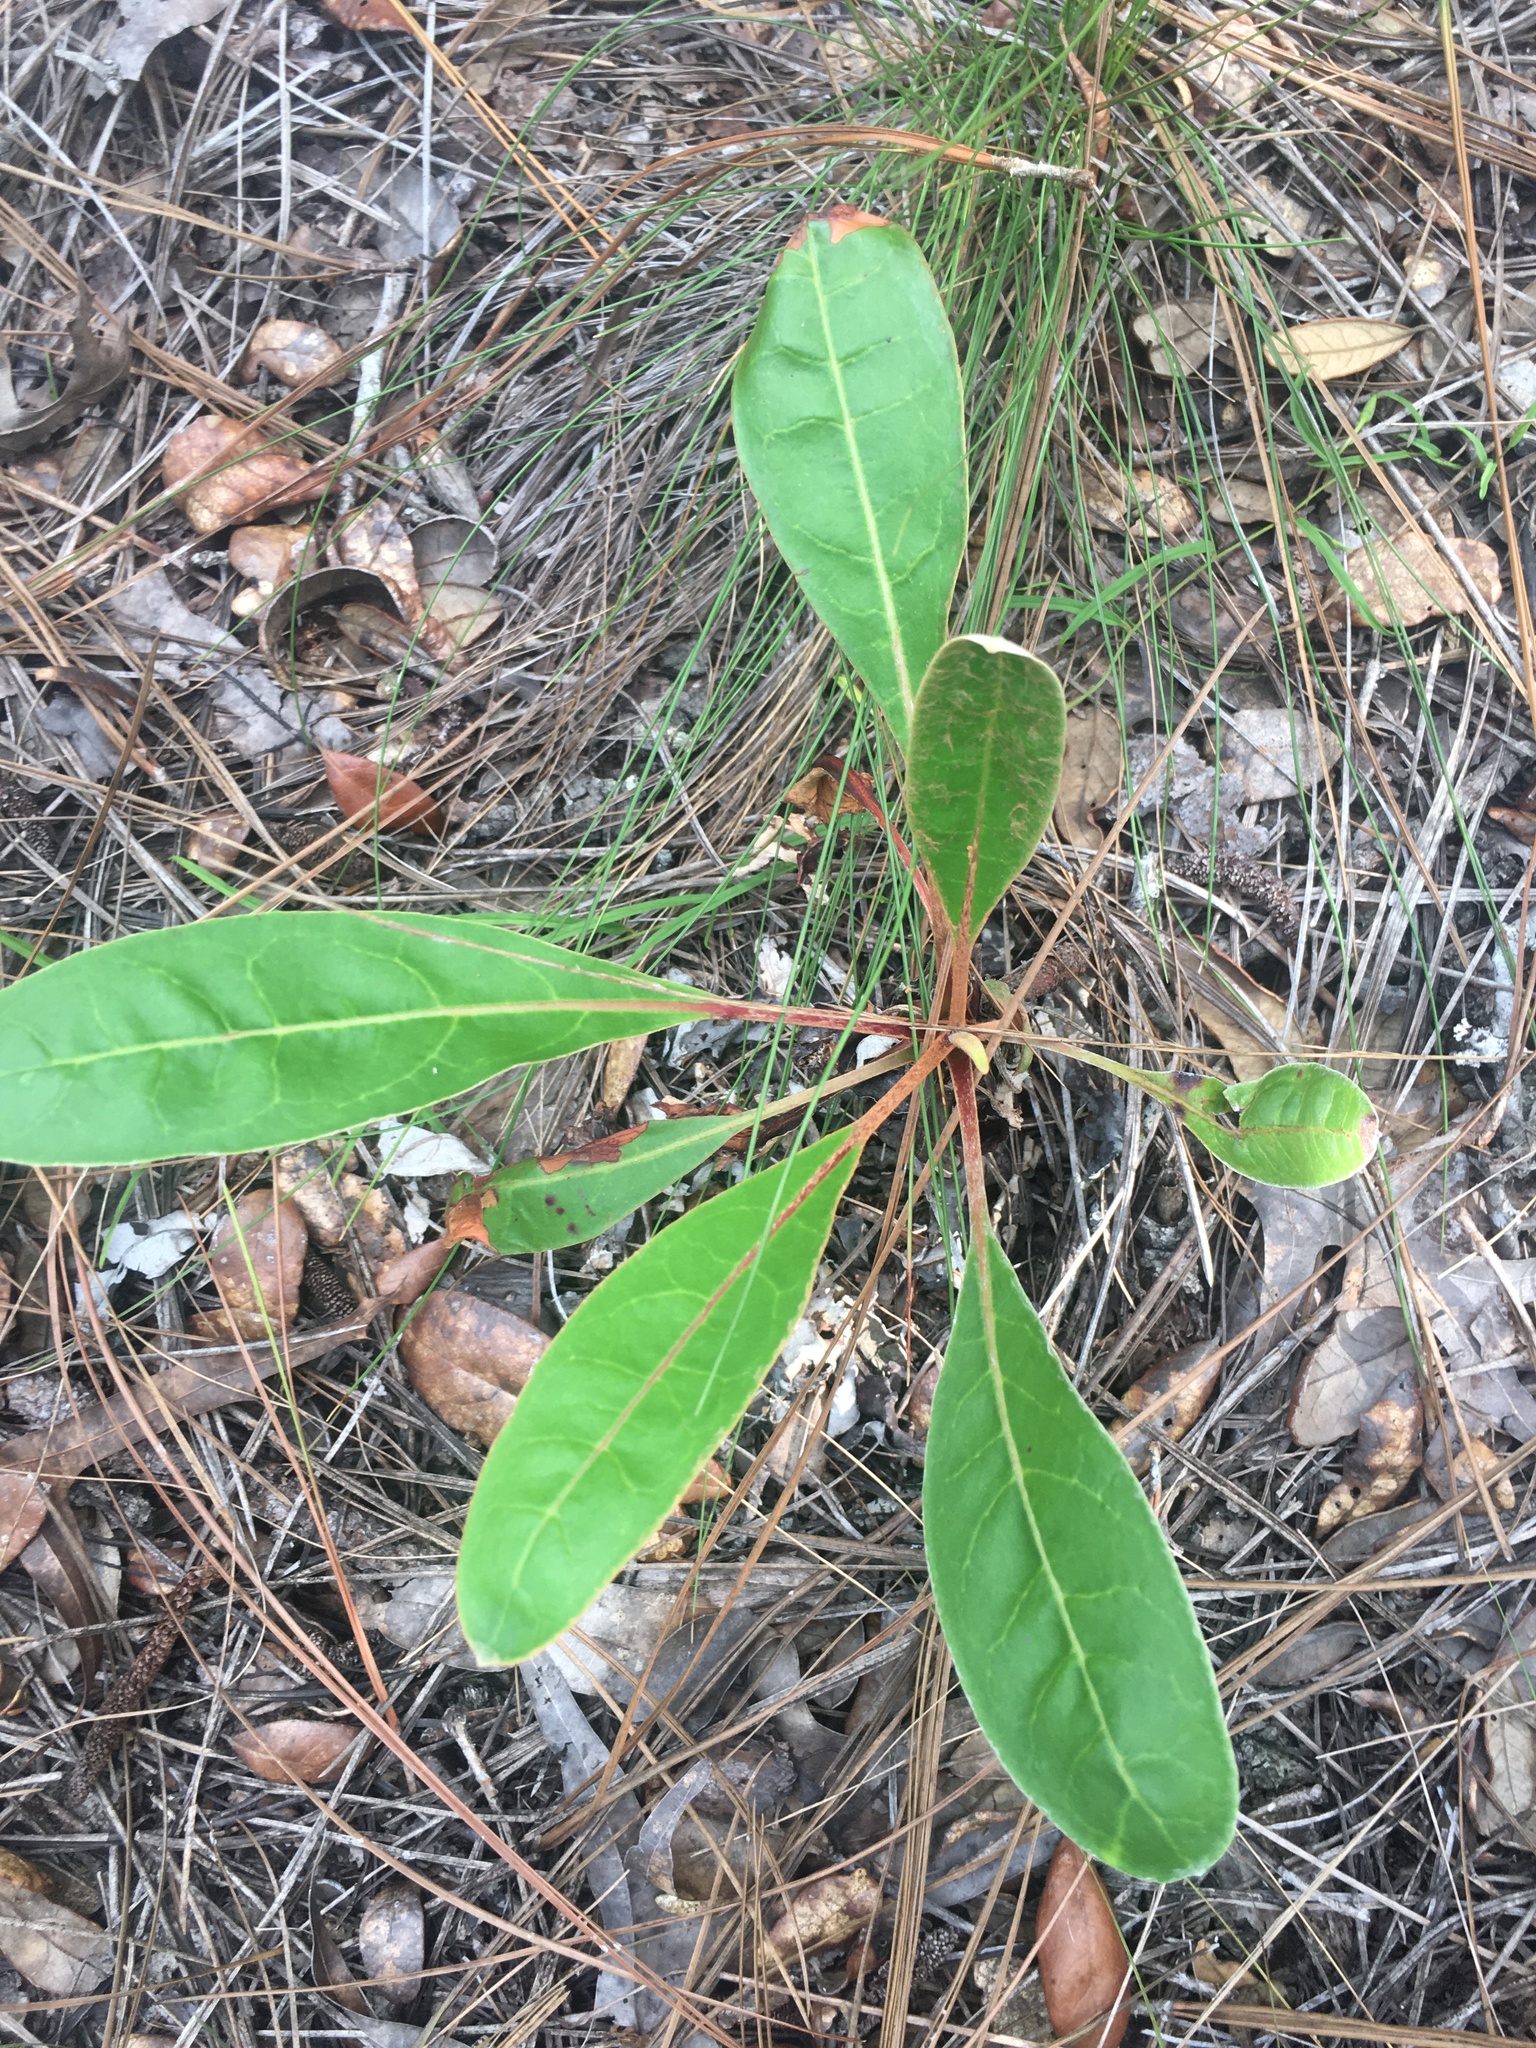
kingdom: Plantae
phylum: Tracheophyta
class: Magnoliopsida
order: Caryophyllales
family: Polygonaceae
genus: Eriogonum
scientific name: Eriogonum tomentosum
